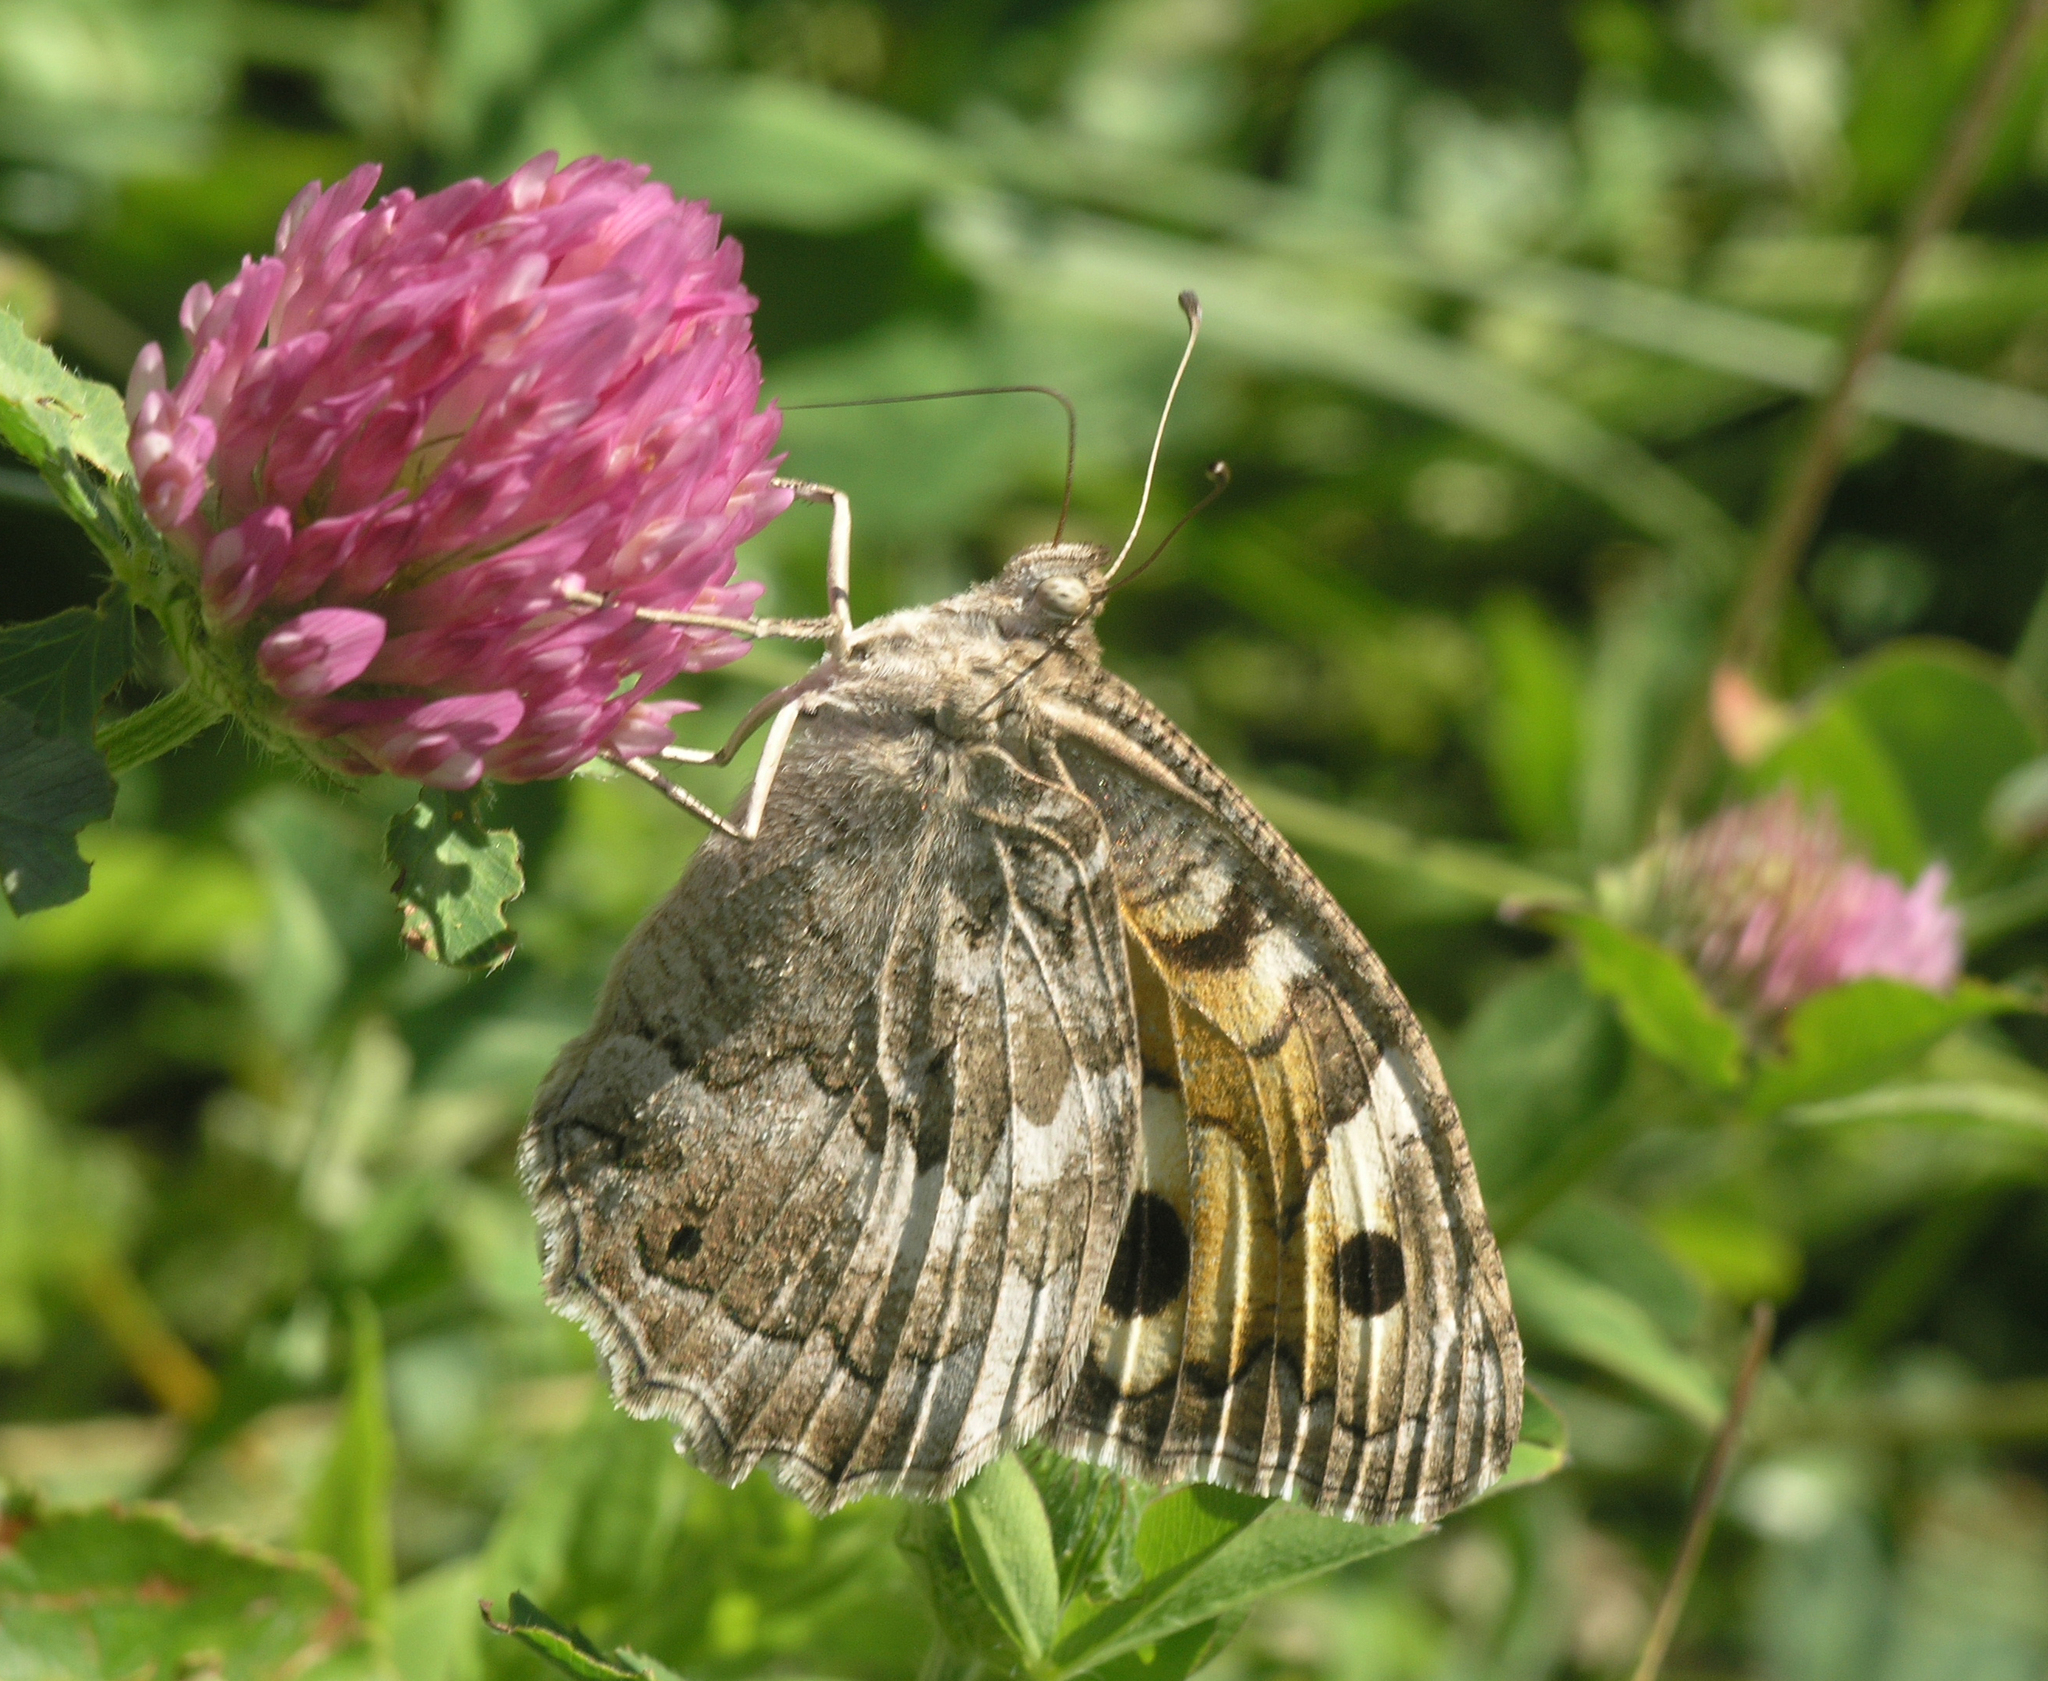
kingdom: Animalia
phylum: Arthropoda
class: Insecta
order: Lepidoptera
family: Nymphalidae
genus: Satyrus
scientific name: Satyrus Chazara enervata
